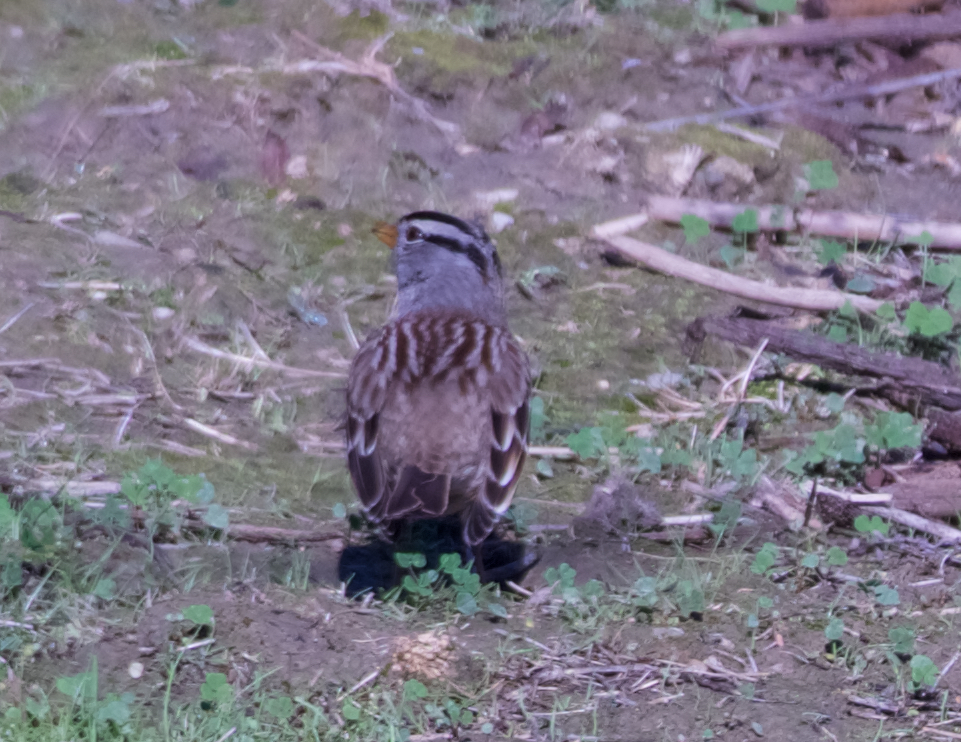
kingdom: Animalia
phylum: Chordata
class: Aves
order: Passeriformes
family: Passerellidae
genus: Zonotrichia
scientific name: Zonotrichia leucophrys
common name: White-crowned sparrow
